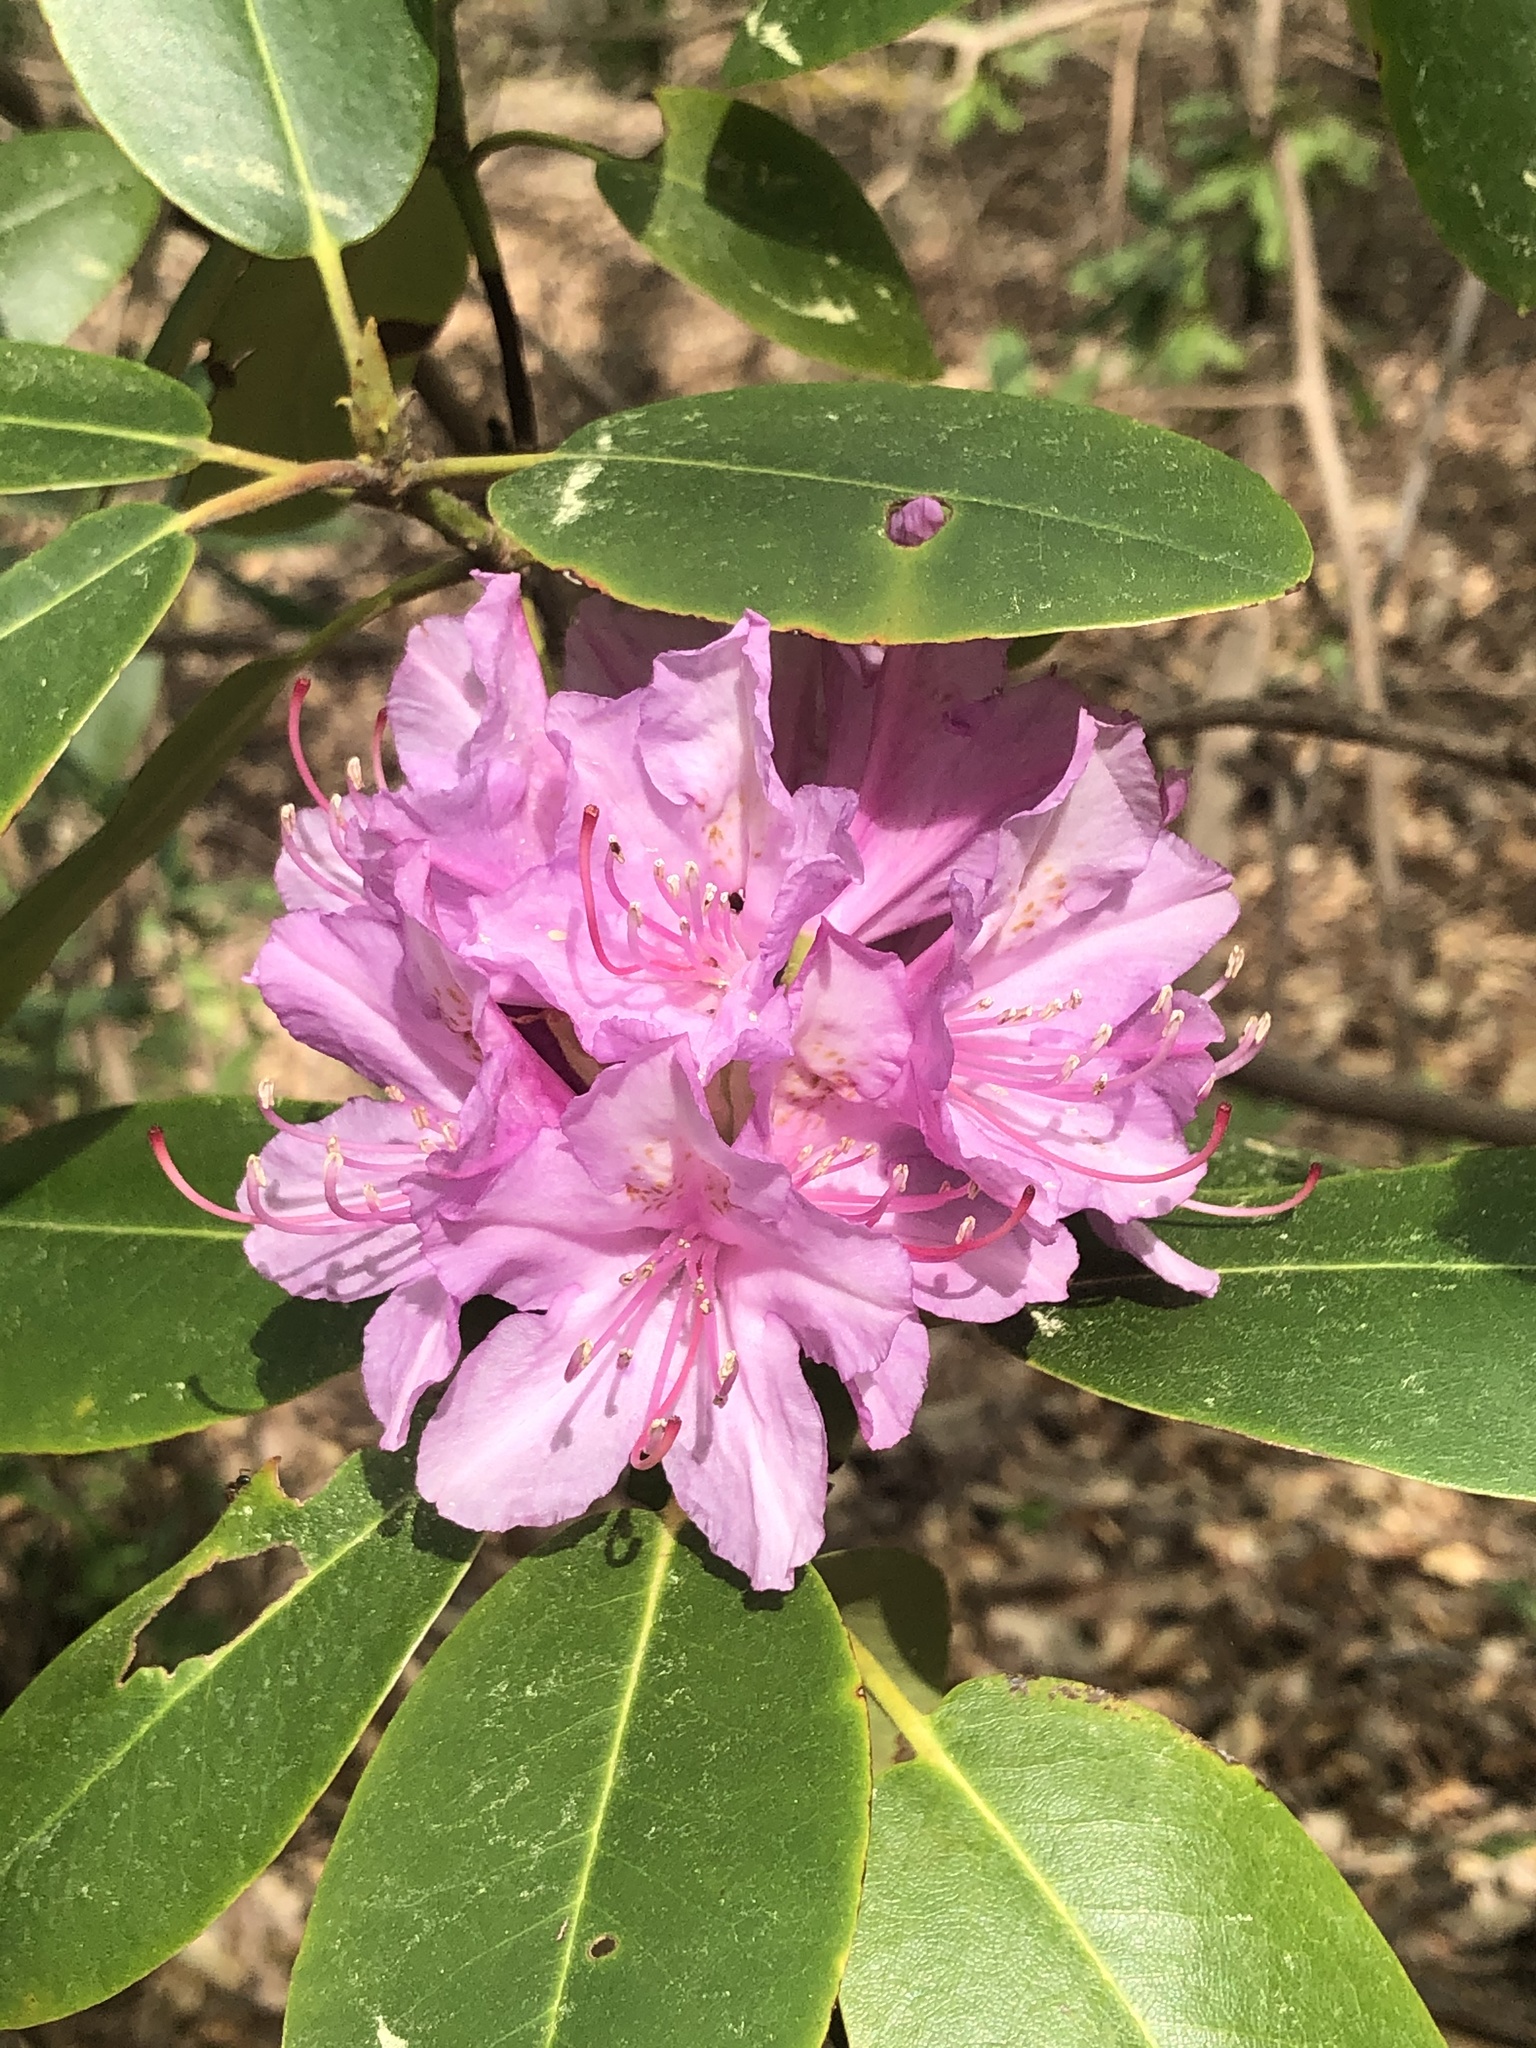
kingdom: Plantae
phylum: Tracheophyta
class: Magnoliopsida
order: Ericales
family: Ericaceae
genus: Rhododendron
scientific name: Rhododendron catawbiense
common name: Catawba rhododendron
